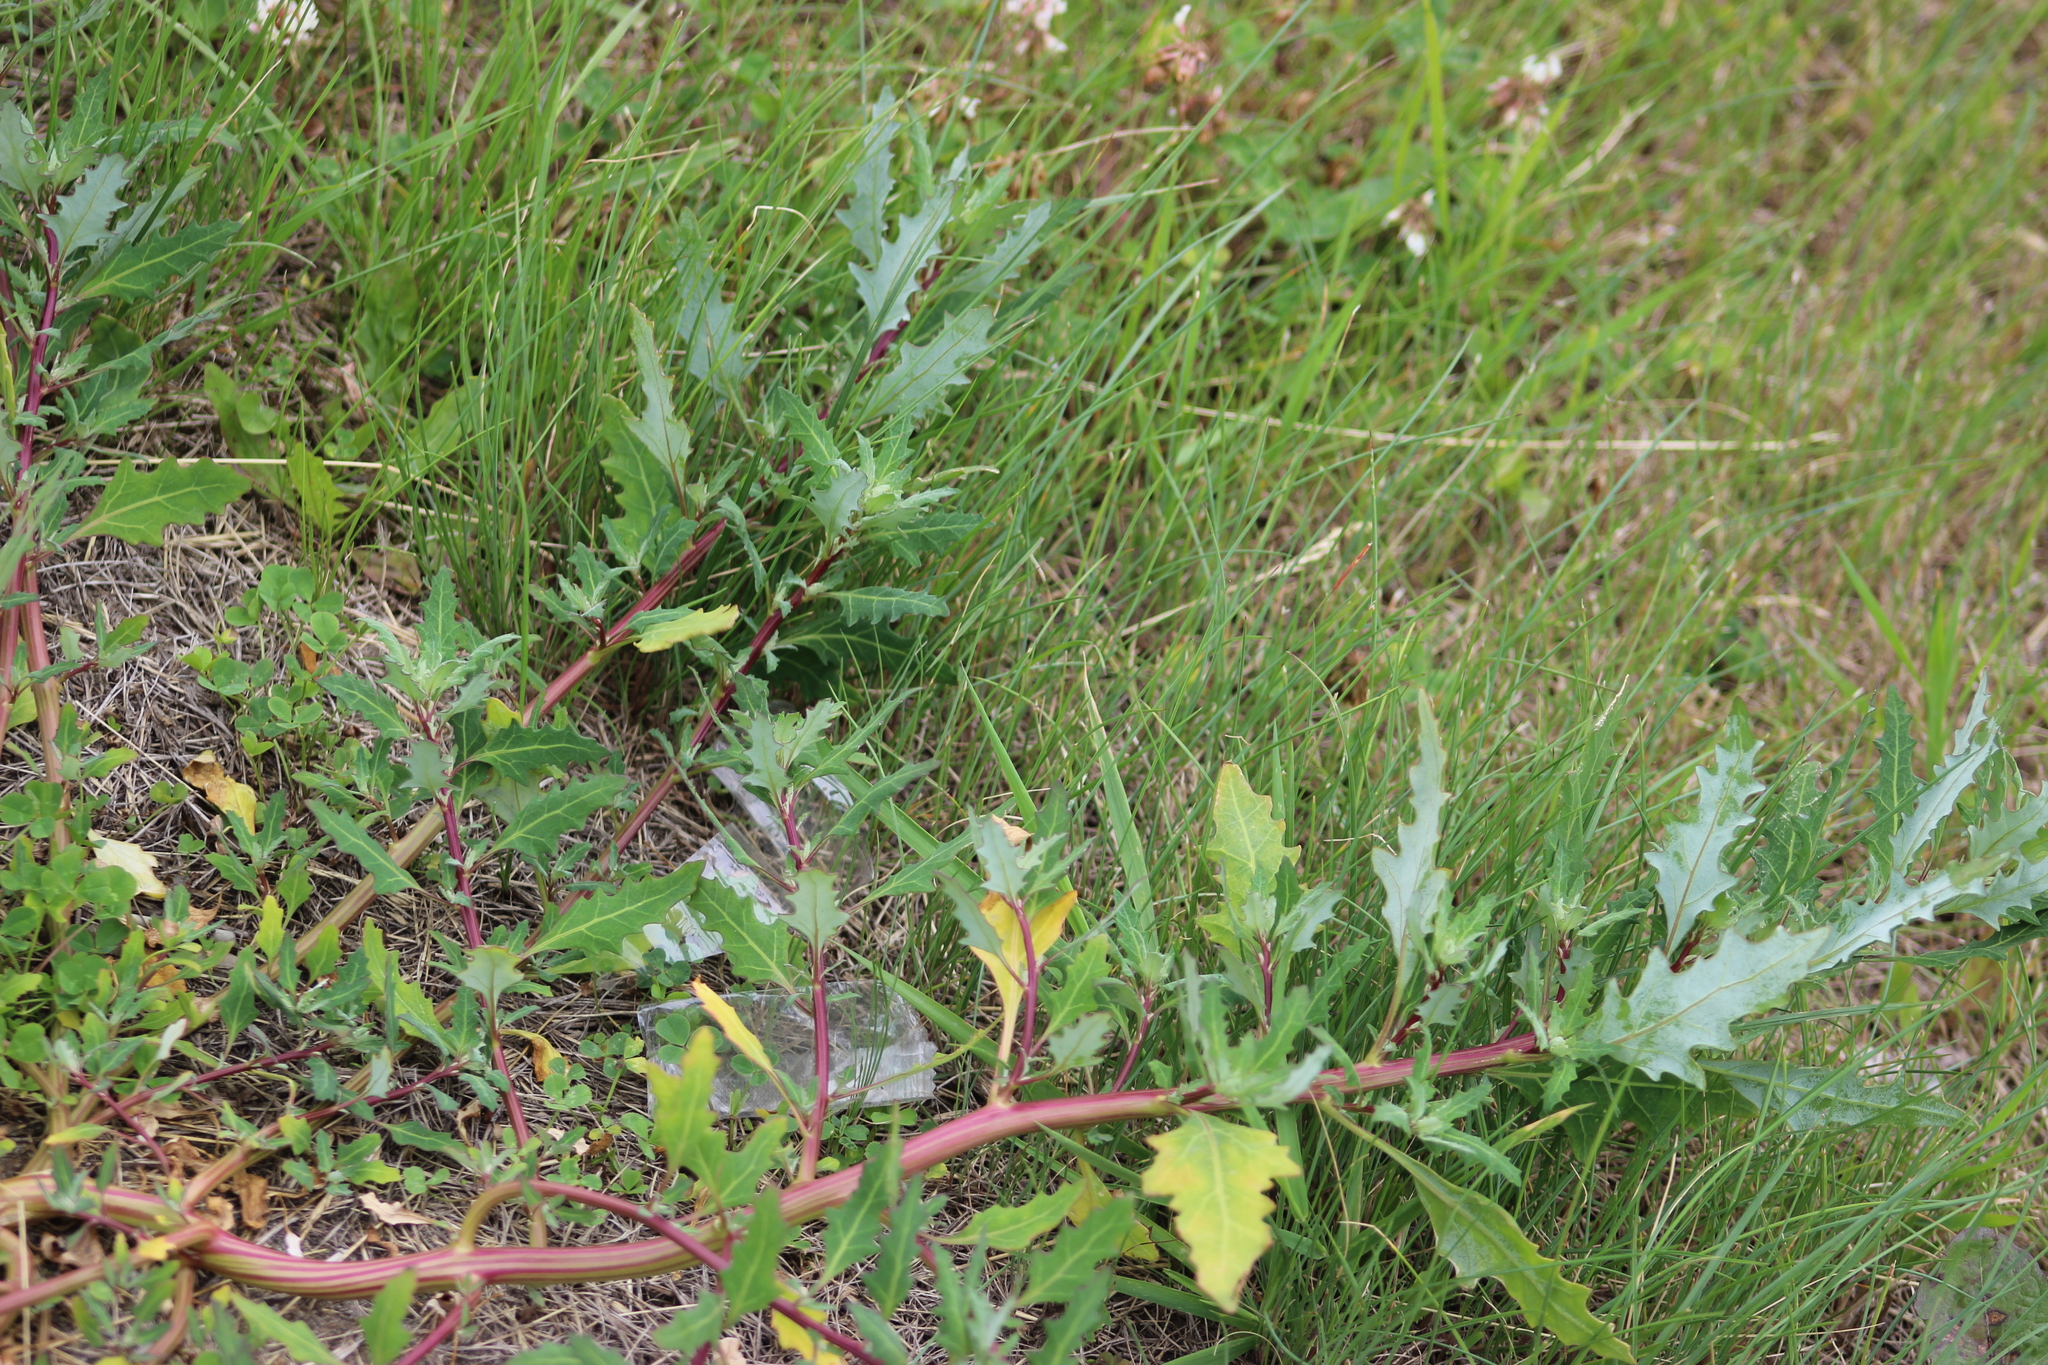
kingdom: Plantae
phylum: Tracheophyta
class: Magnoliopsida
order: Caryophyllales
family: Amaranthaceae
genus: Oxybasis
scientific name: Oxybasis glauca
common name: Glaucous goosefoot
